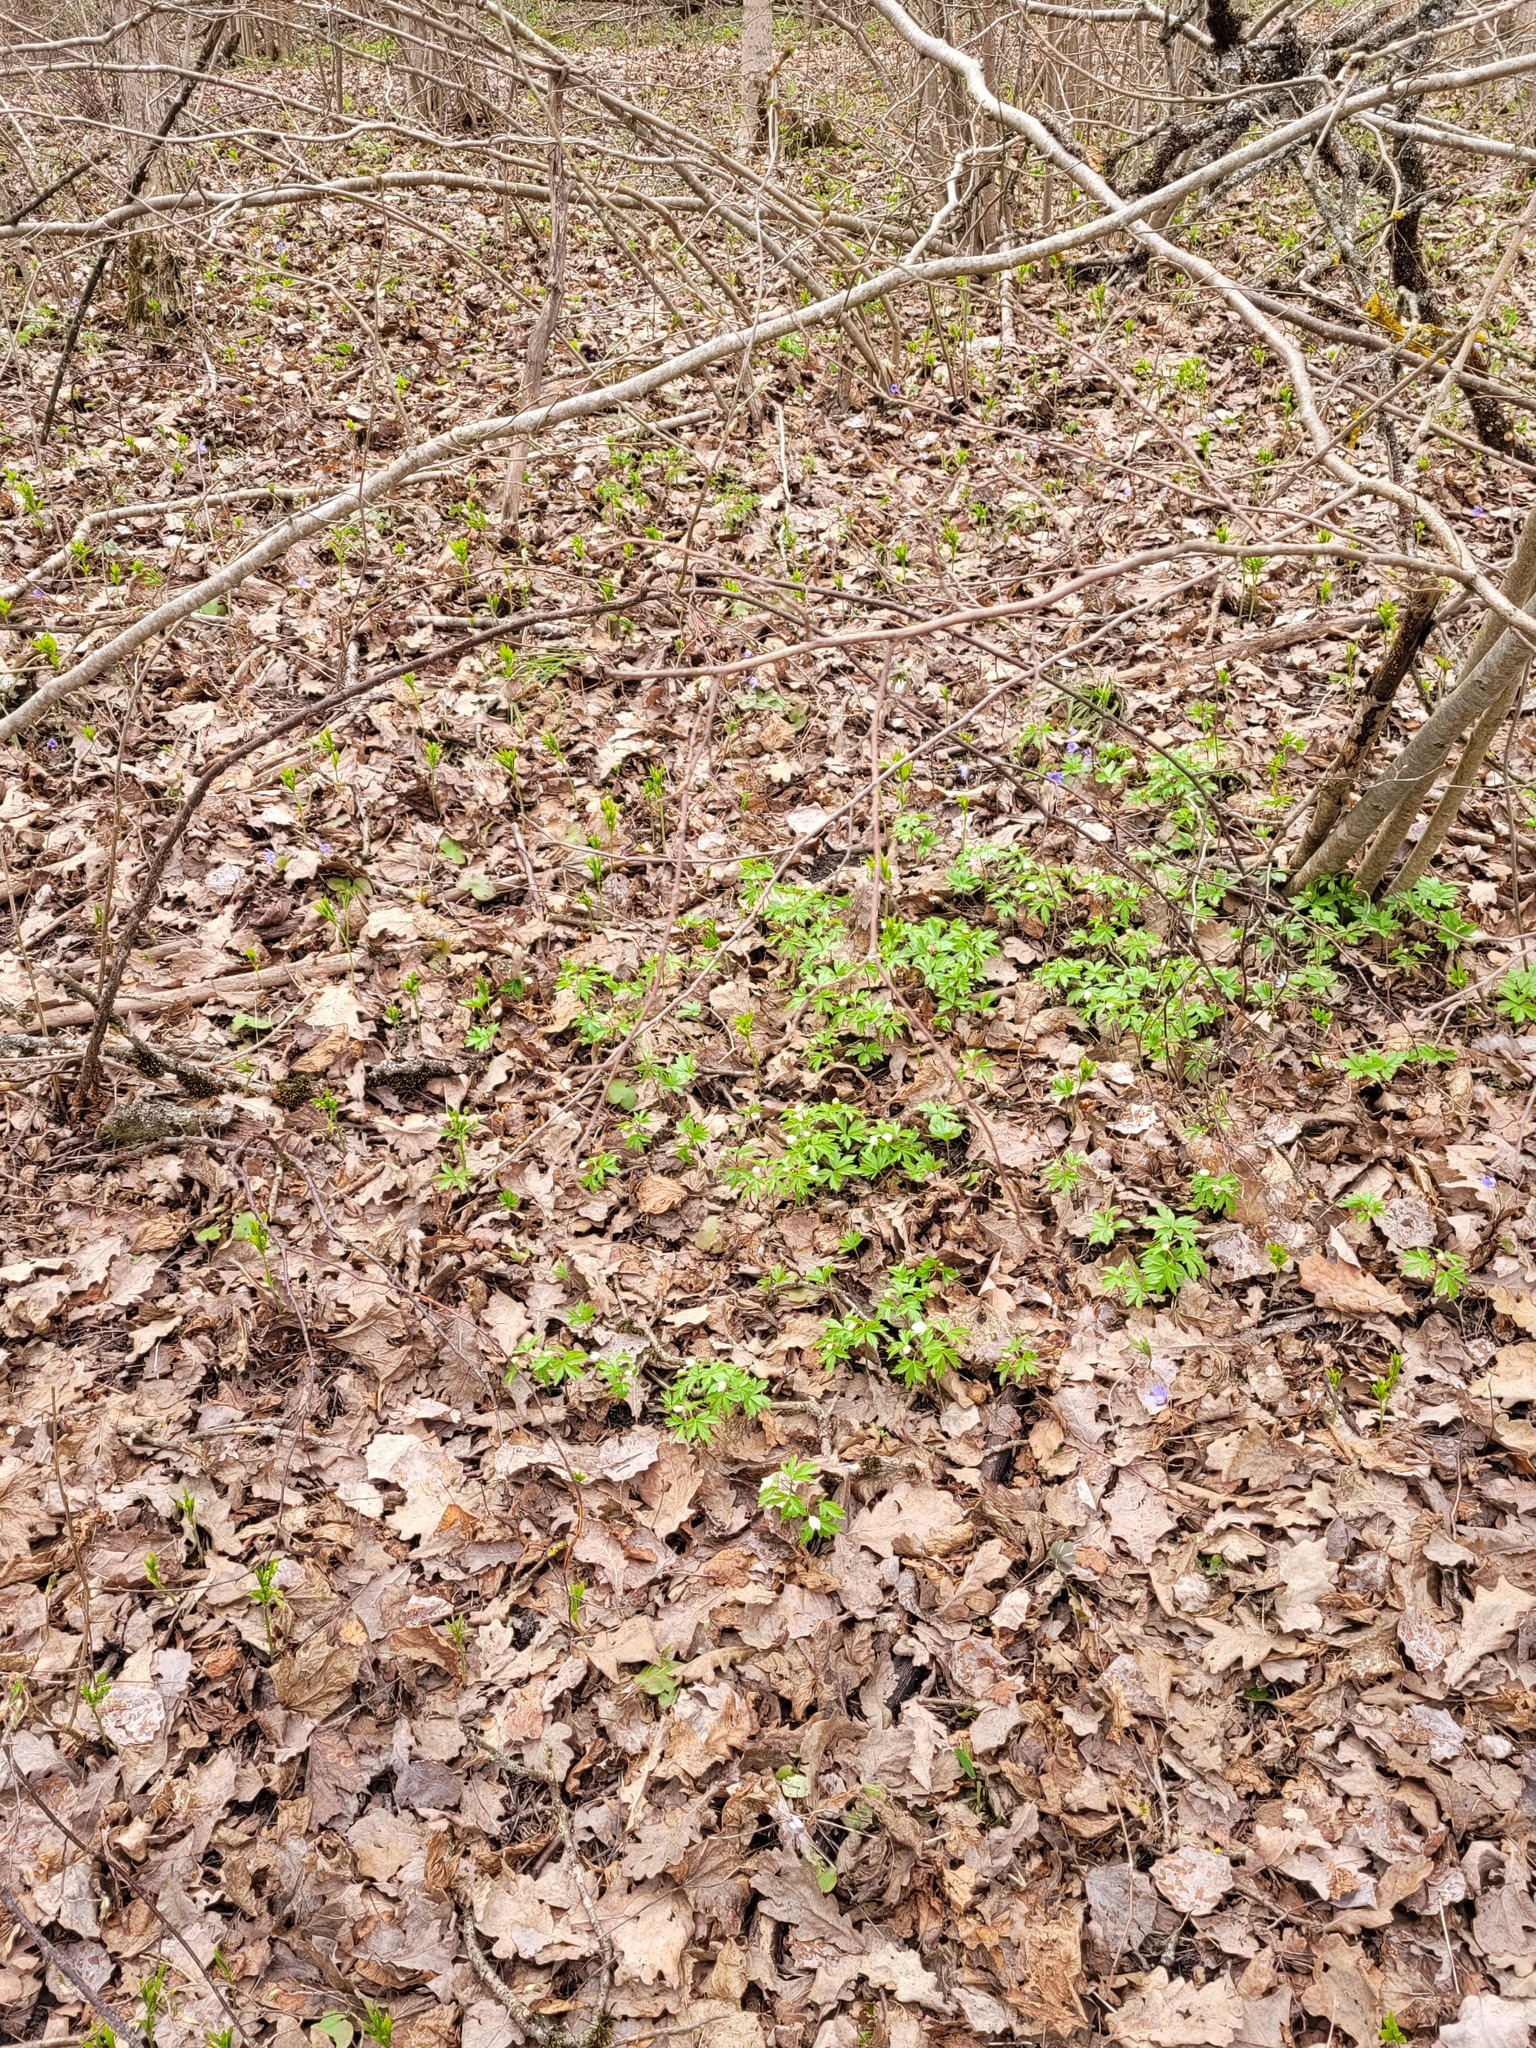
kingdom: Plantae
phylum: Tracheophyta
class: Magnoliopsida
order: Ranunculales
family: Ranunculaceae
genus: Anemone
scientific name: Anemone nemorosa
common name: Wood anemone
